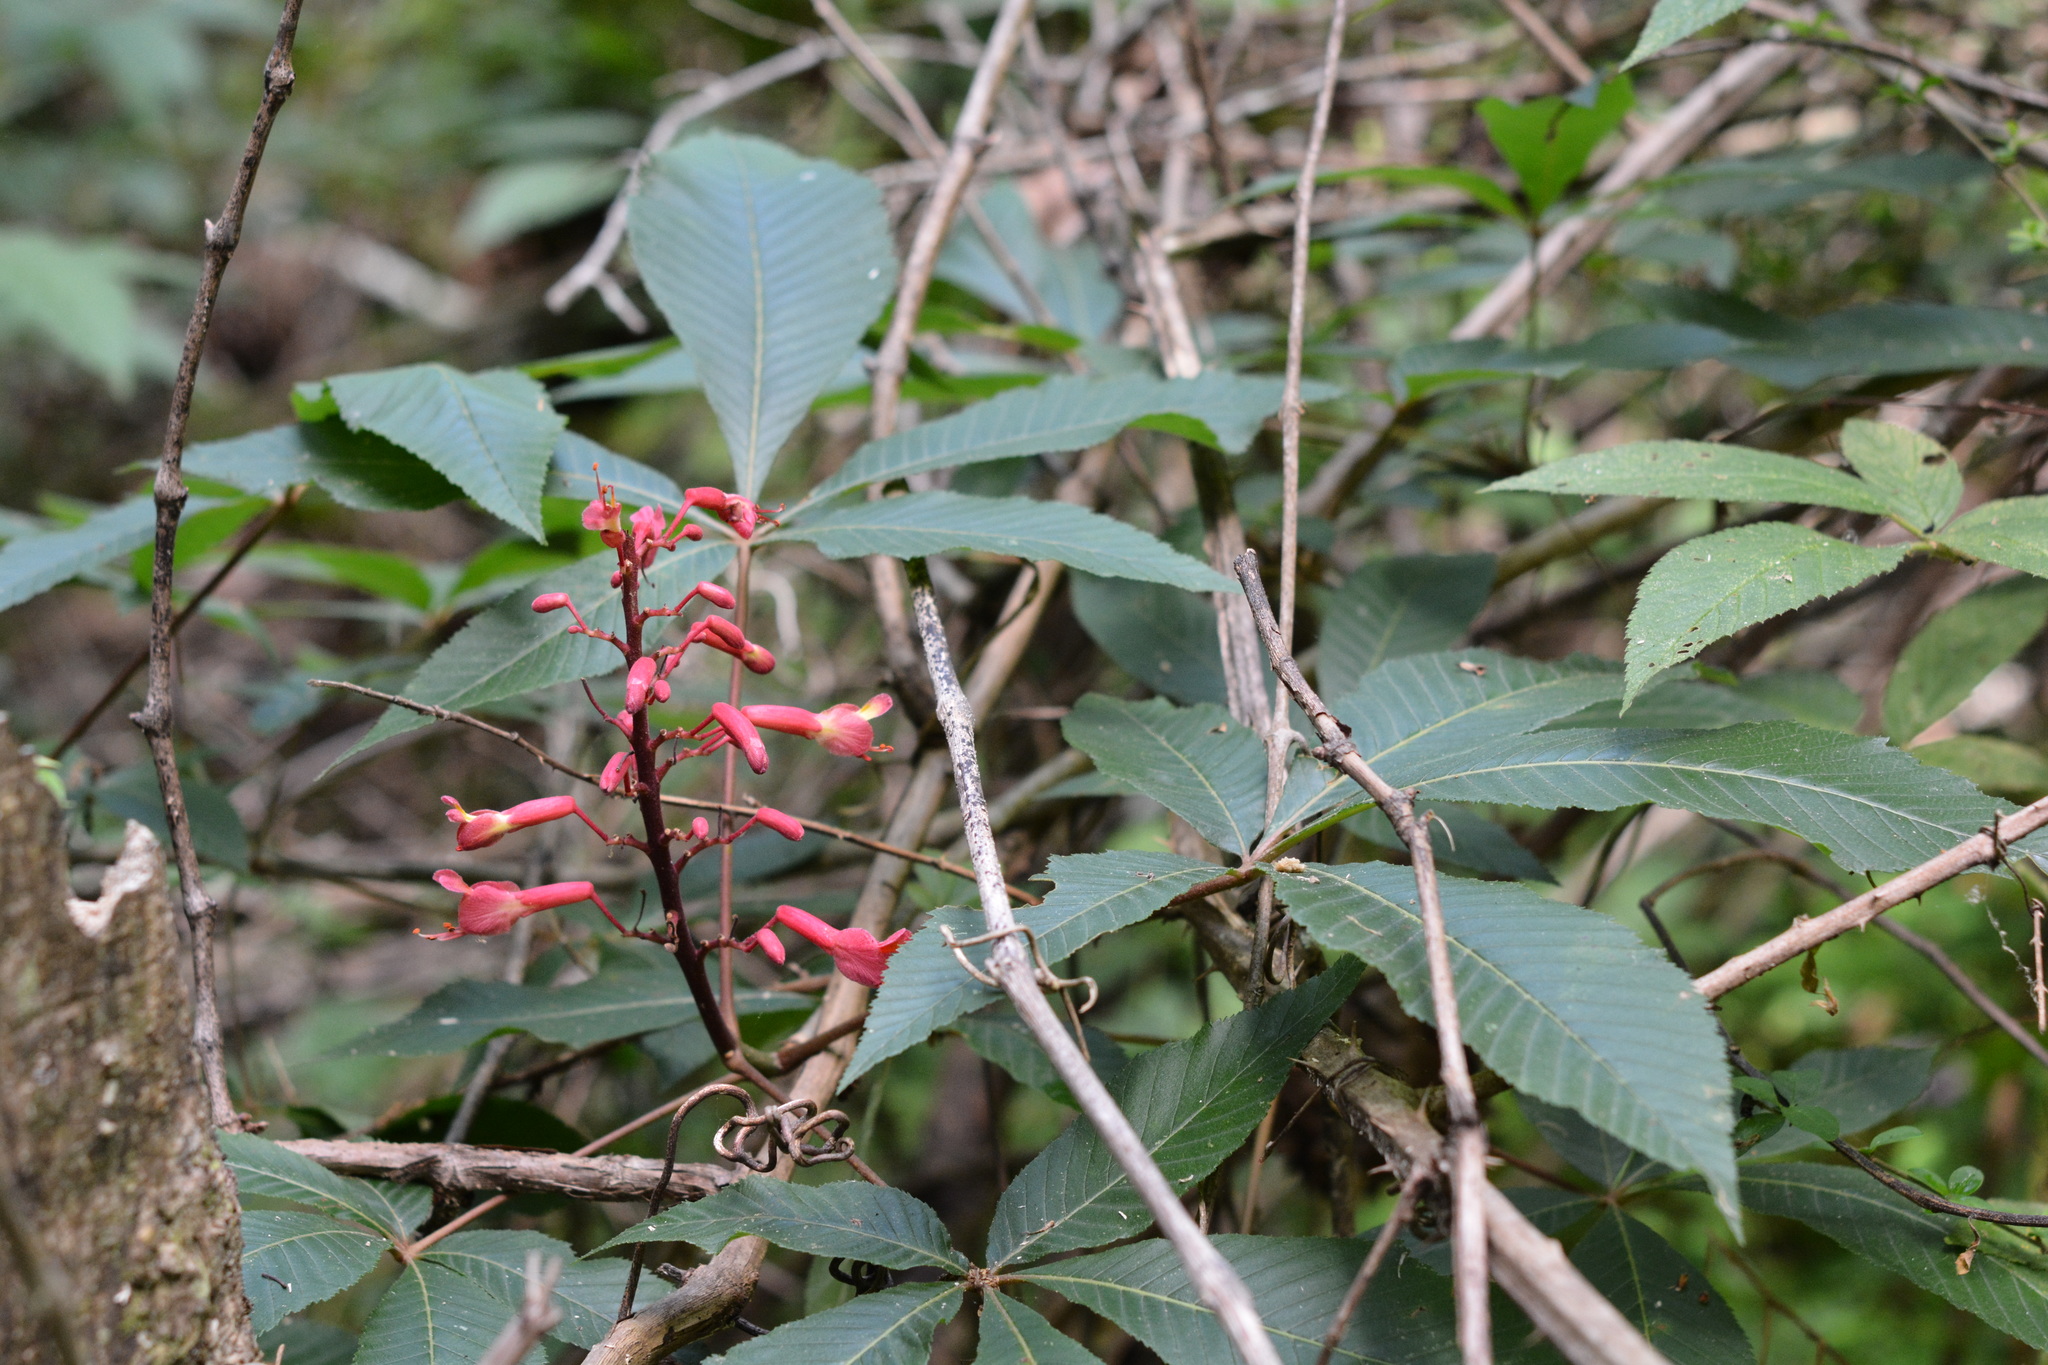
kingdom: Plantae
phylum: Tracheophyta
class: Magnoliopsida
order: Sapindales
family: Sapindaceae
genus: Aesculus
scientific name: Aesculus pavia
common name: Red buckeye
